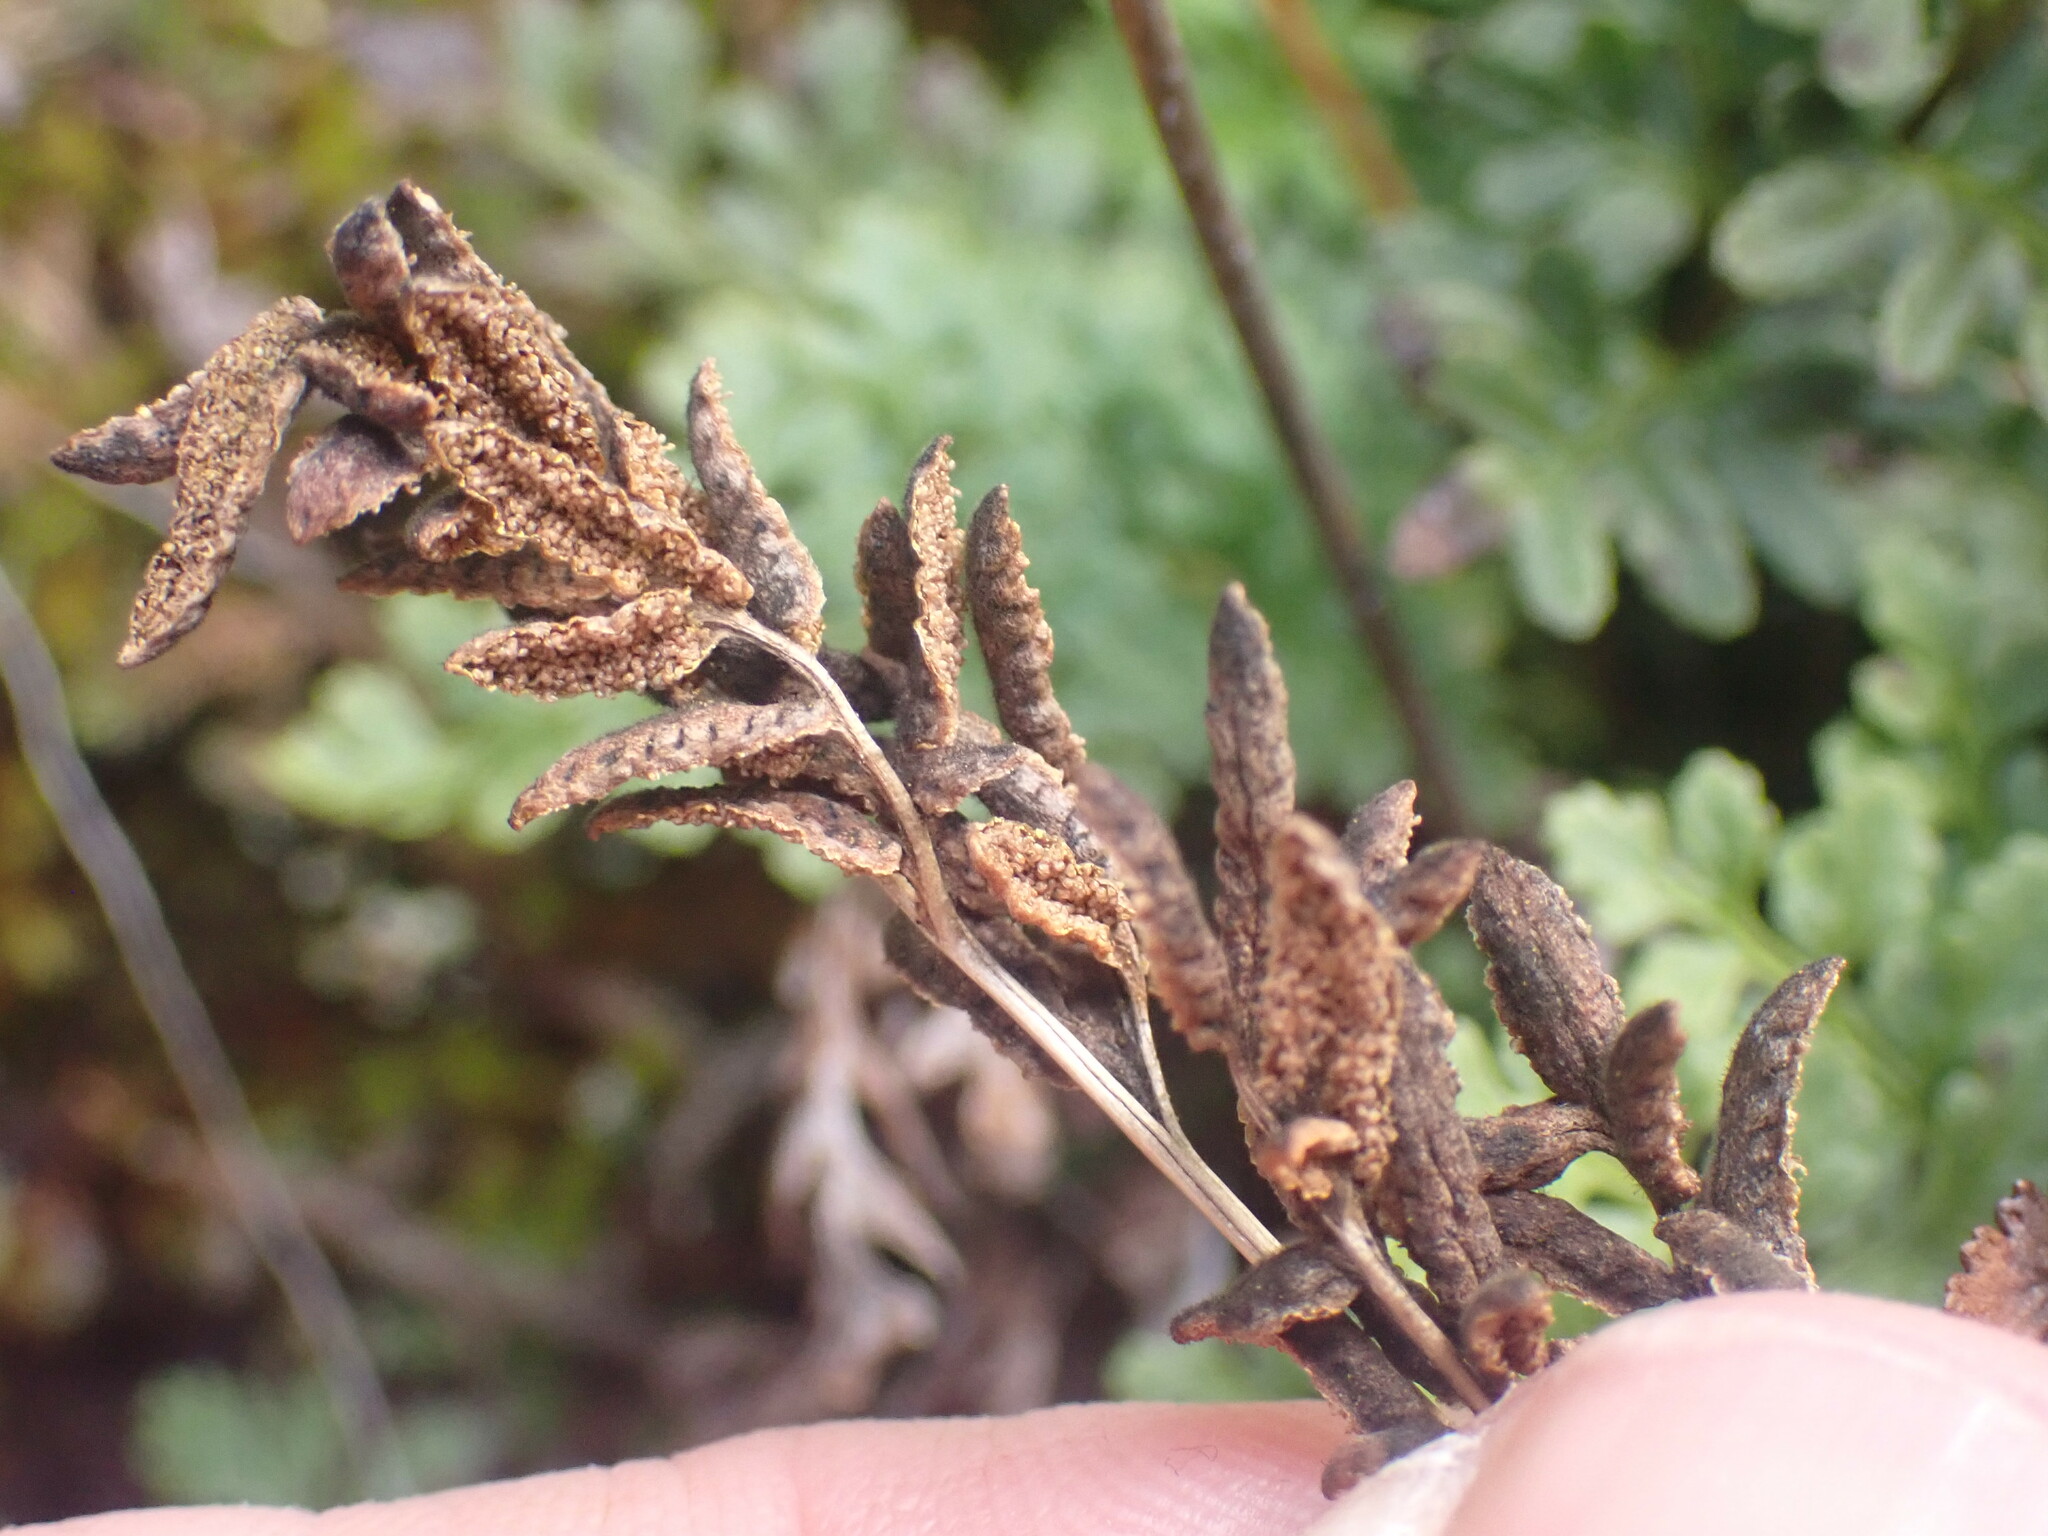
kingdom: Plantae
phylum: Tracheophyta
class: Polypodiopsida
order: Polypodiales
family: Pteridaceae
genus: Cryptogramma
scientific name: Cryptogramma acrostichoides
